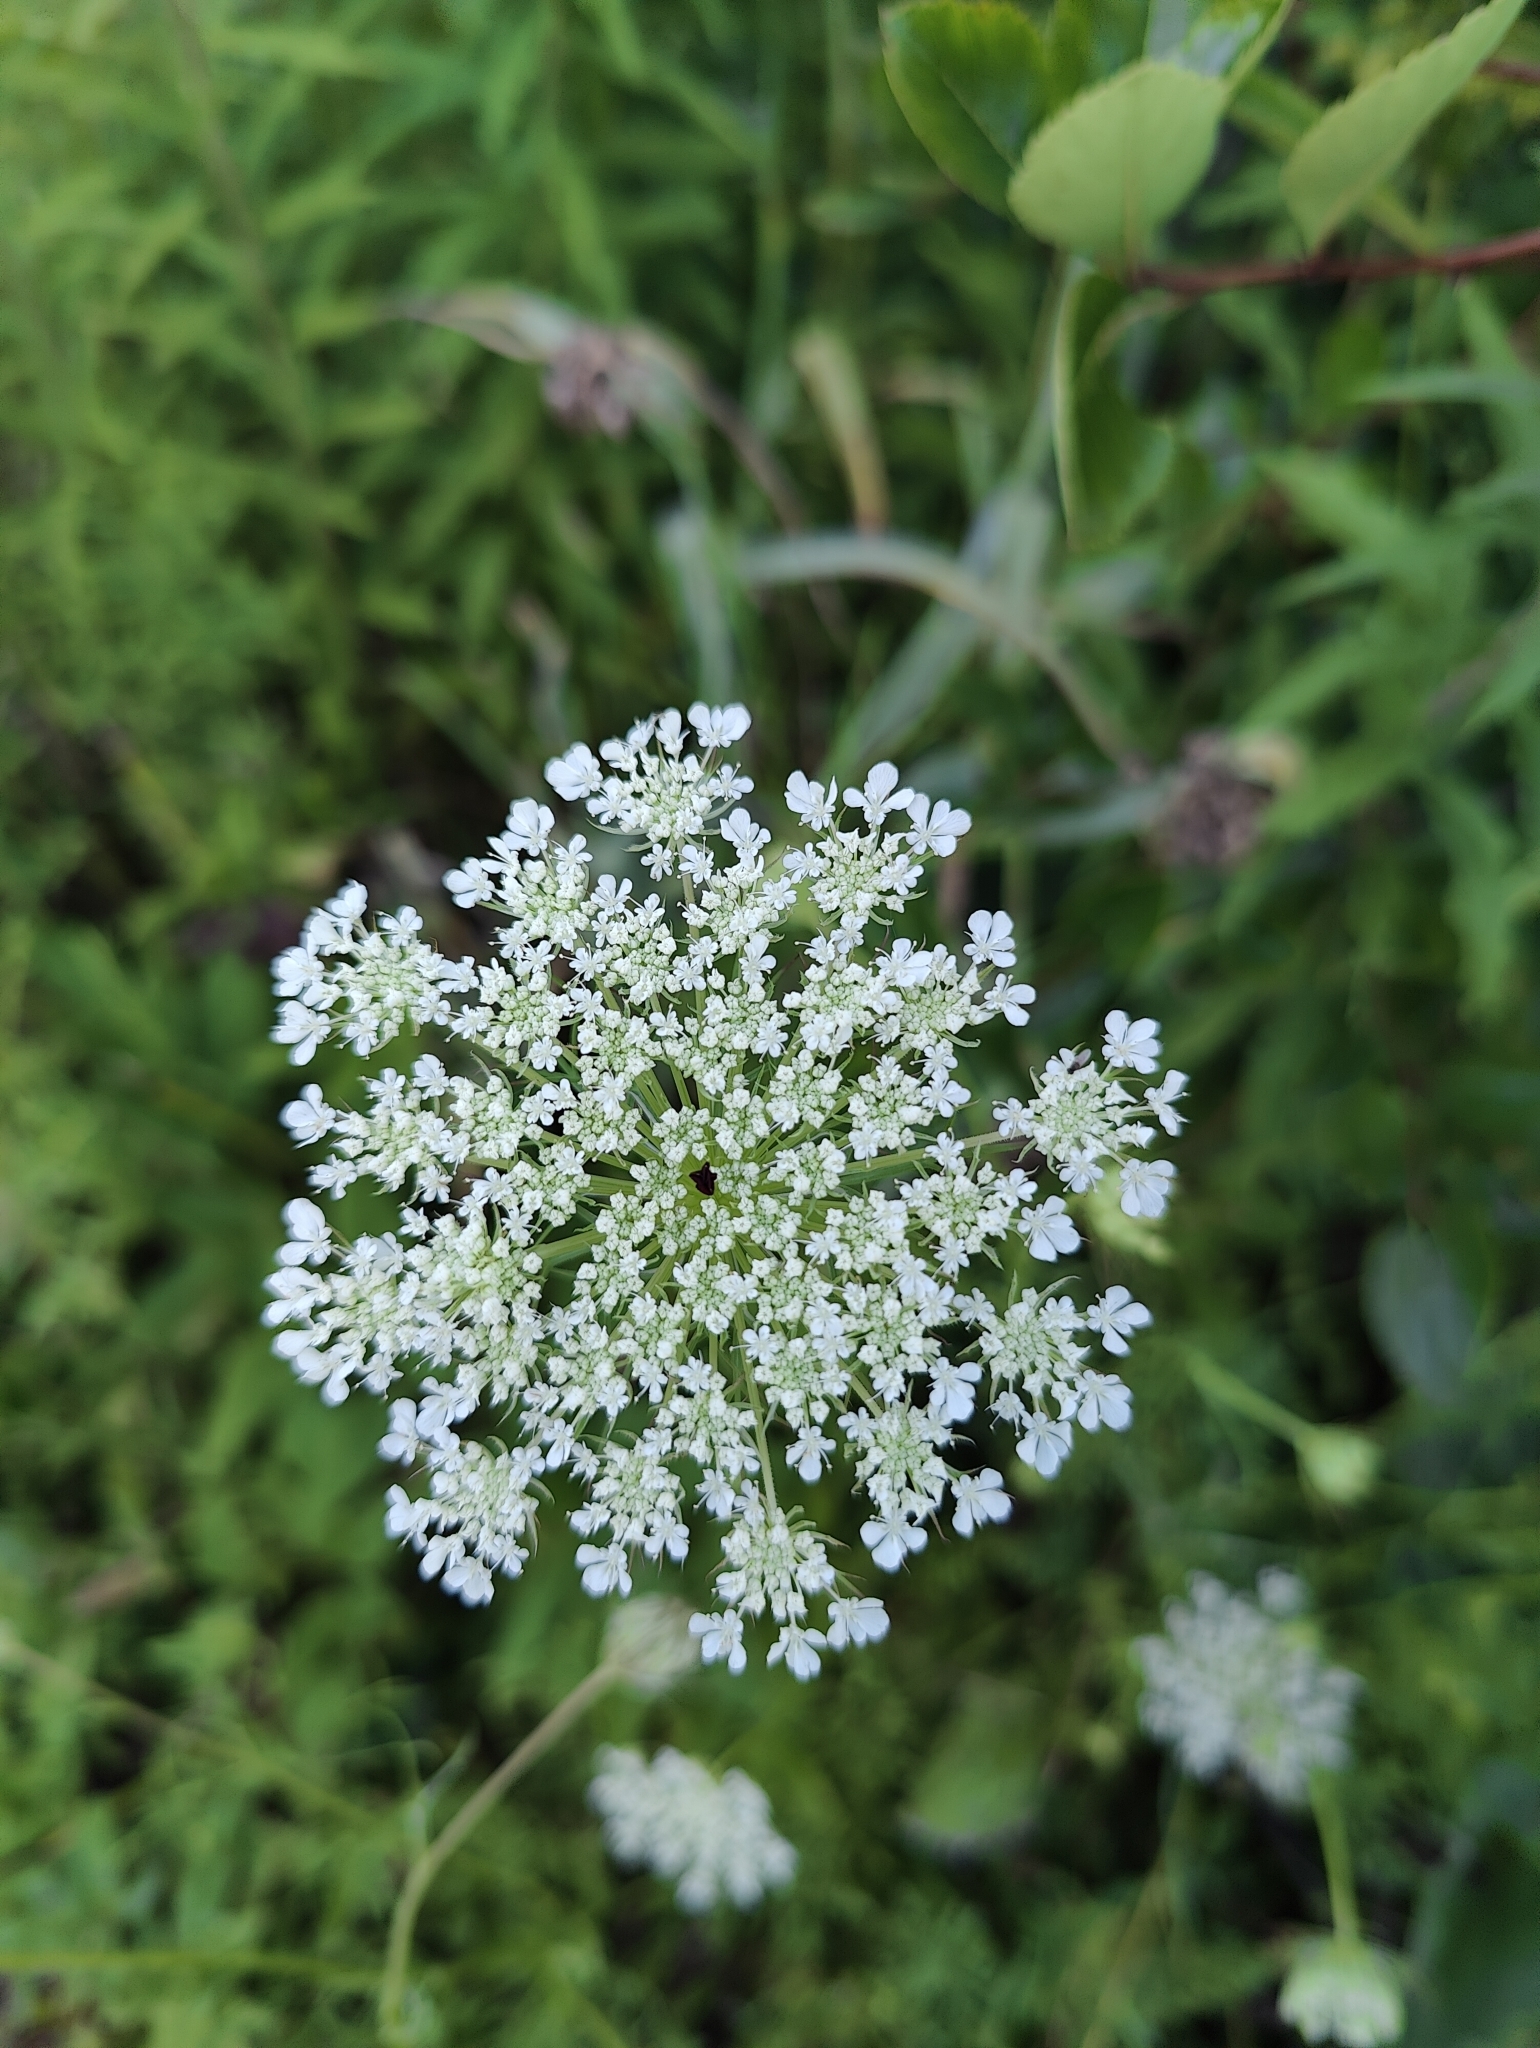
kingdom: Plantae
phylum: Tracheophyta
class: Magnoliopsida
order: Apiales
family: Apiaceae
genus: Daucus
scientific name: Daucus carota
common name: Wild carrot
